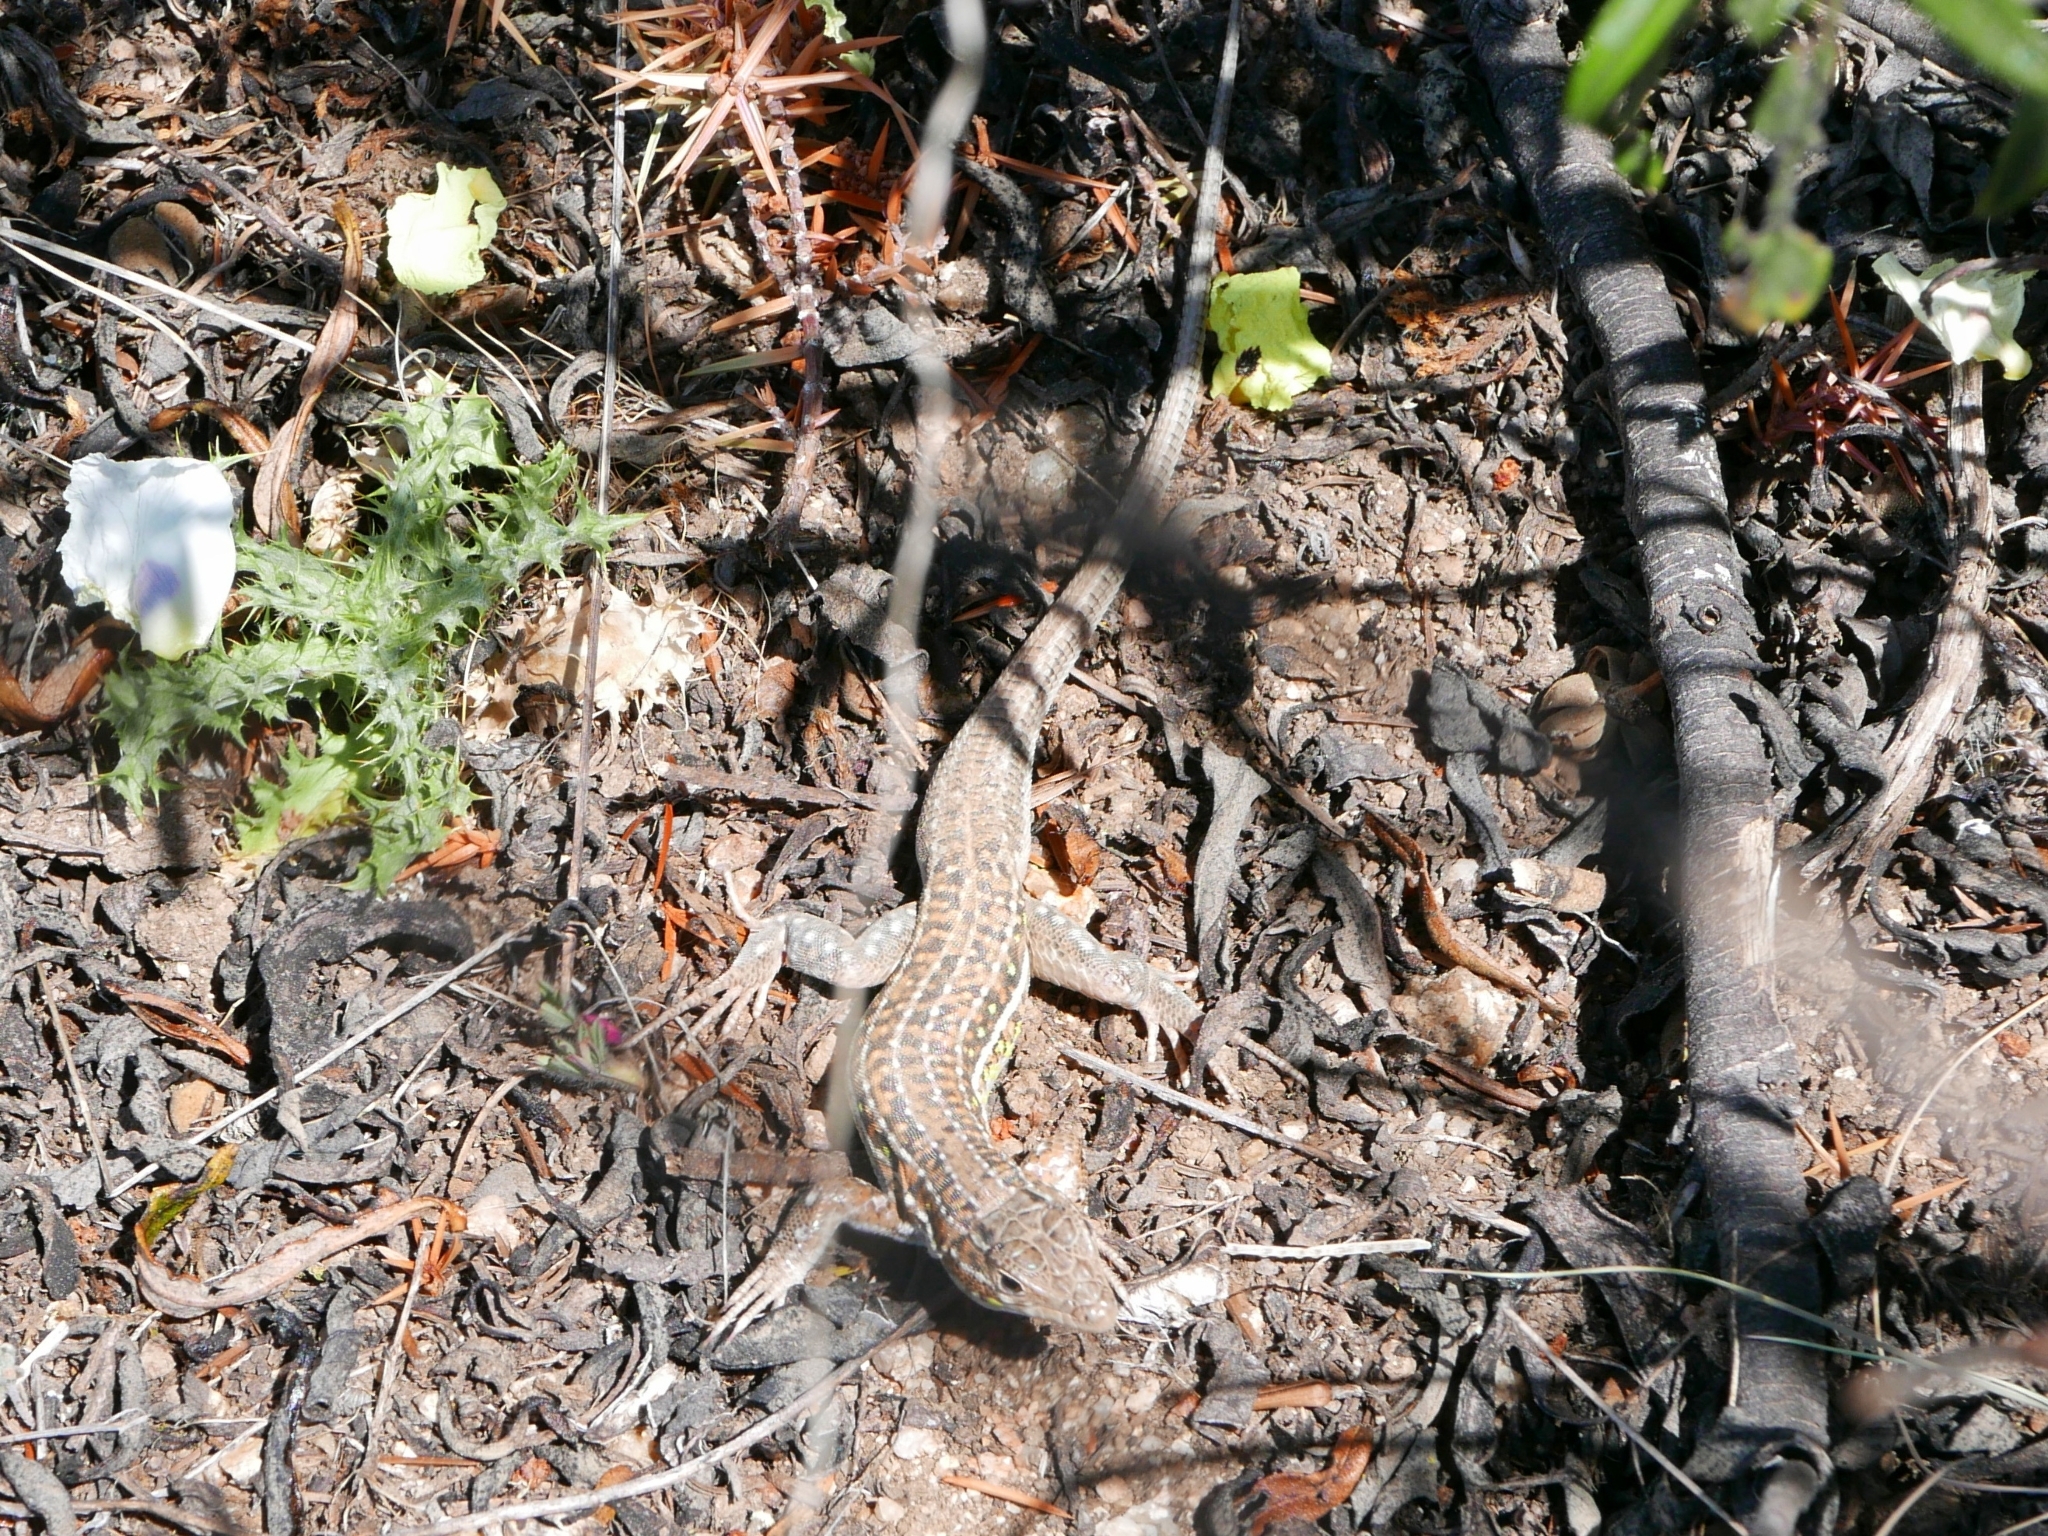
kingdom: Animalia
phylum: Chordata
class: Squamata
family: Lacertidae
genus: Acanthodactylus
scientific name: Acanthodactylus erythrurus
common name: Spiny-footed lizard
